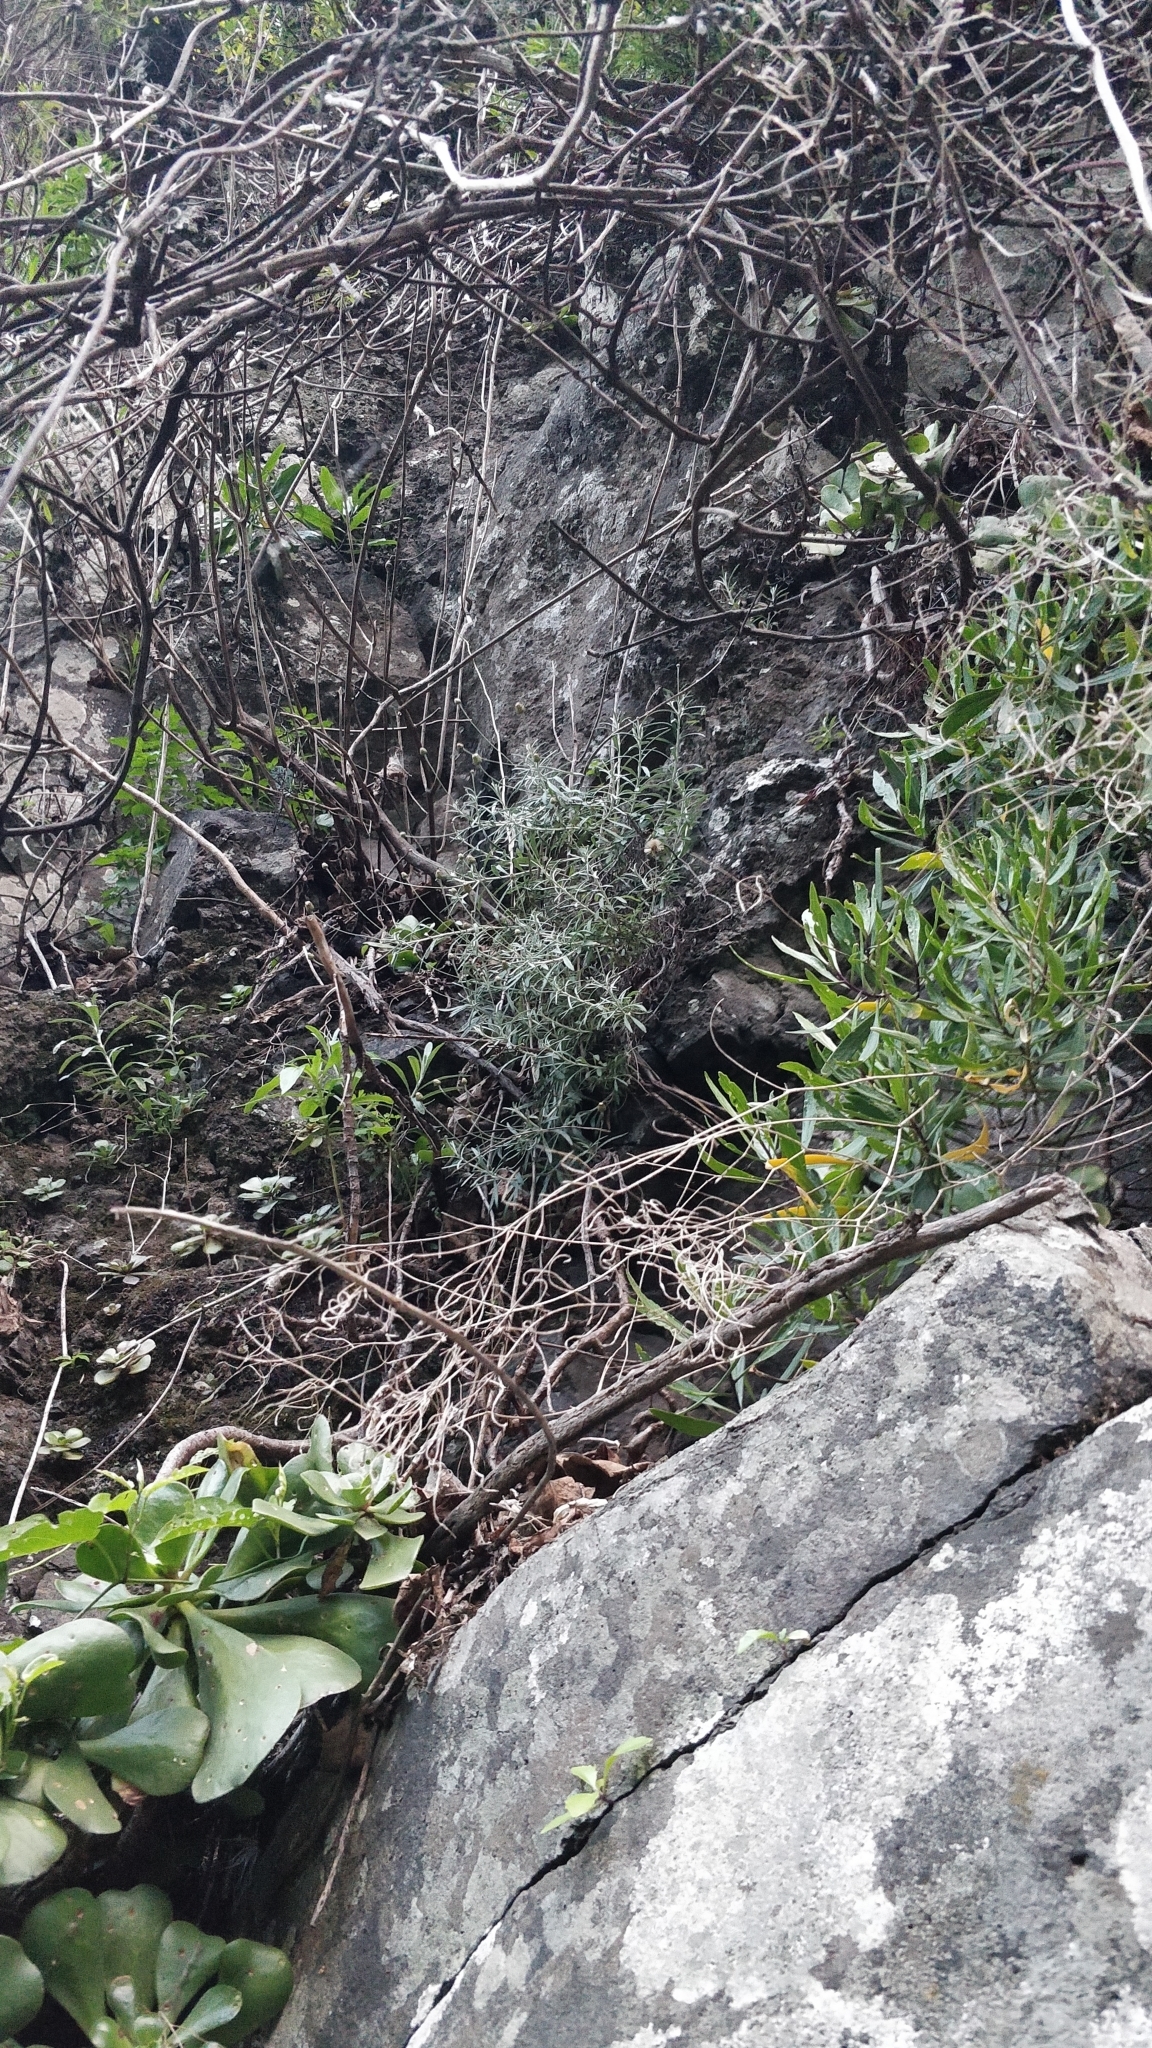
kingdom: Plantae
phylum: Tracheophyta
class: Magnoliopsida
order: Asterales
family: Asteraceae
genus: Phagnalon
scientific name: Phagnalon saxatile
